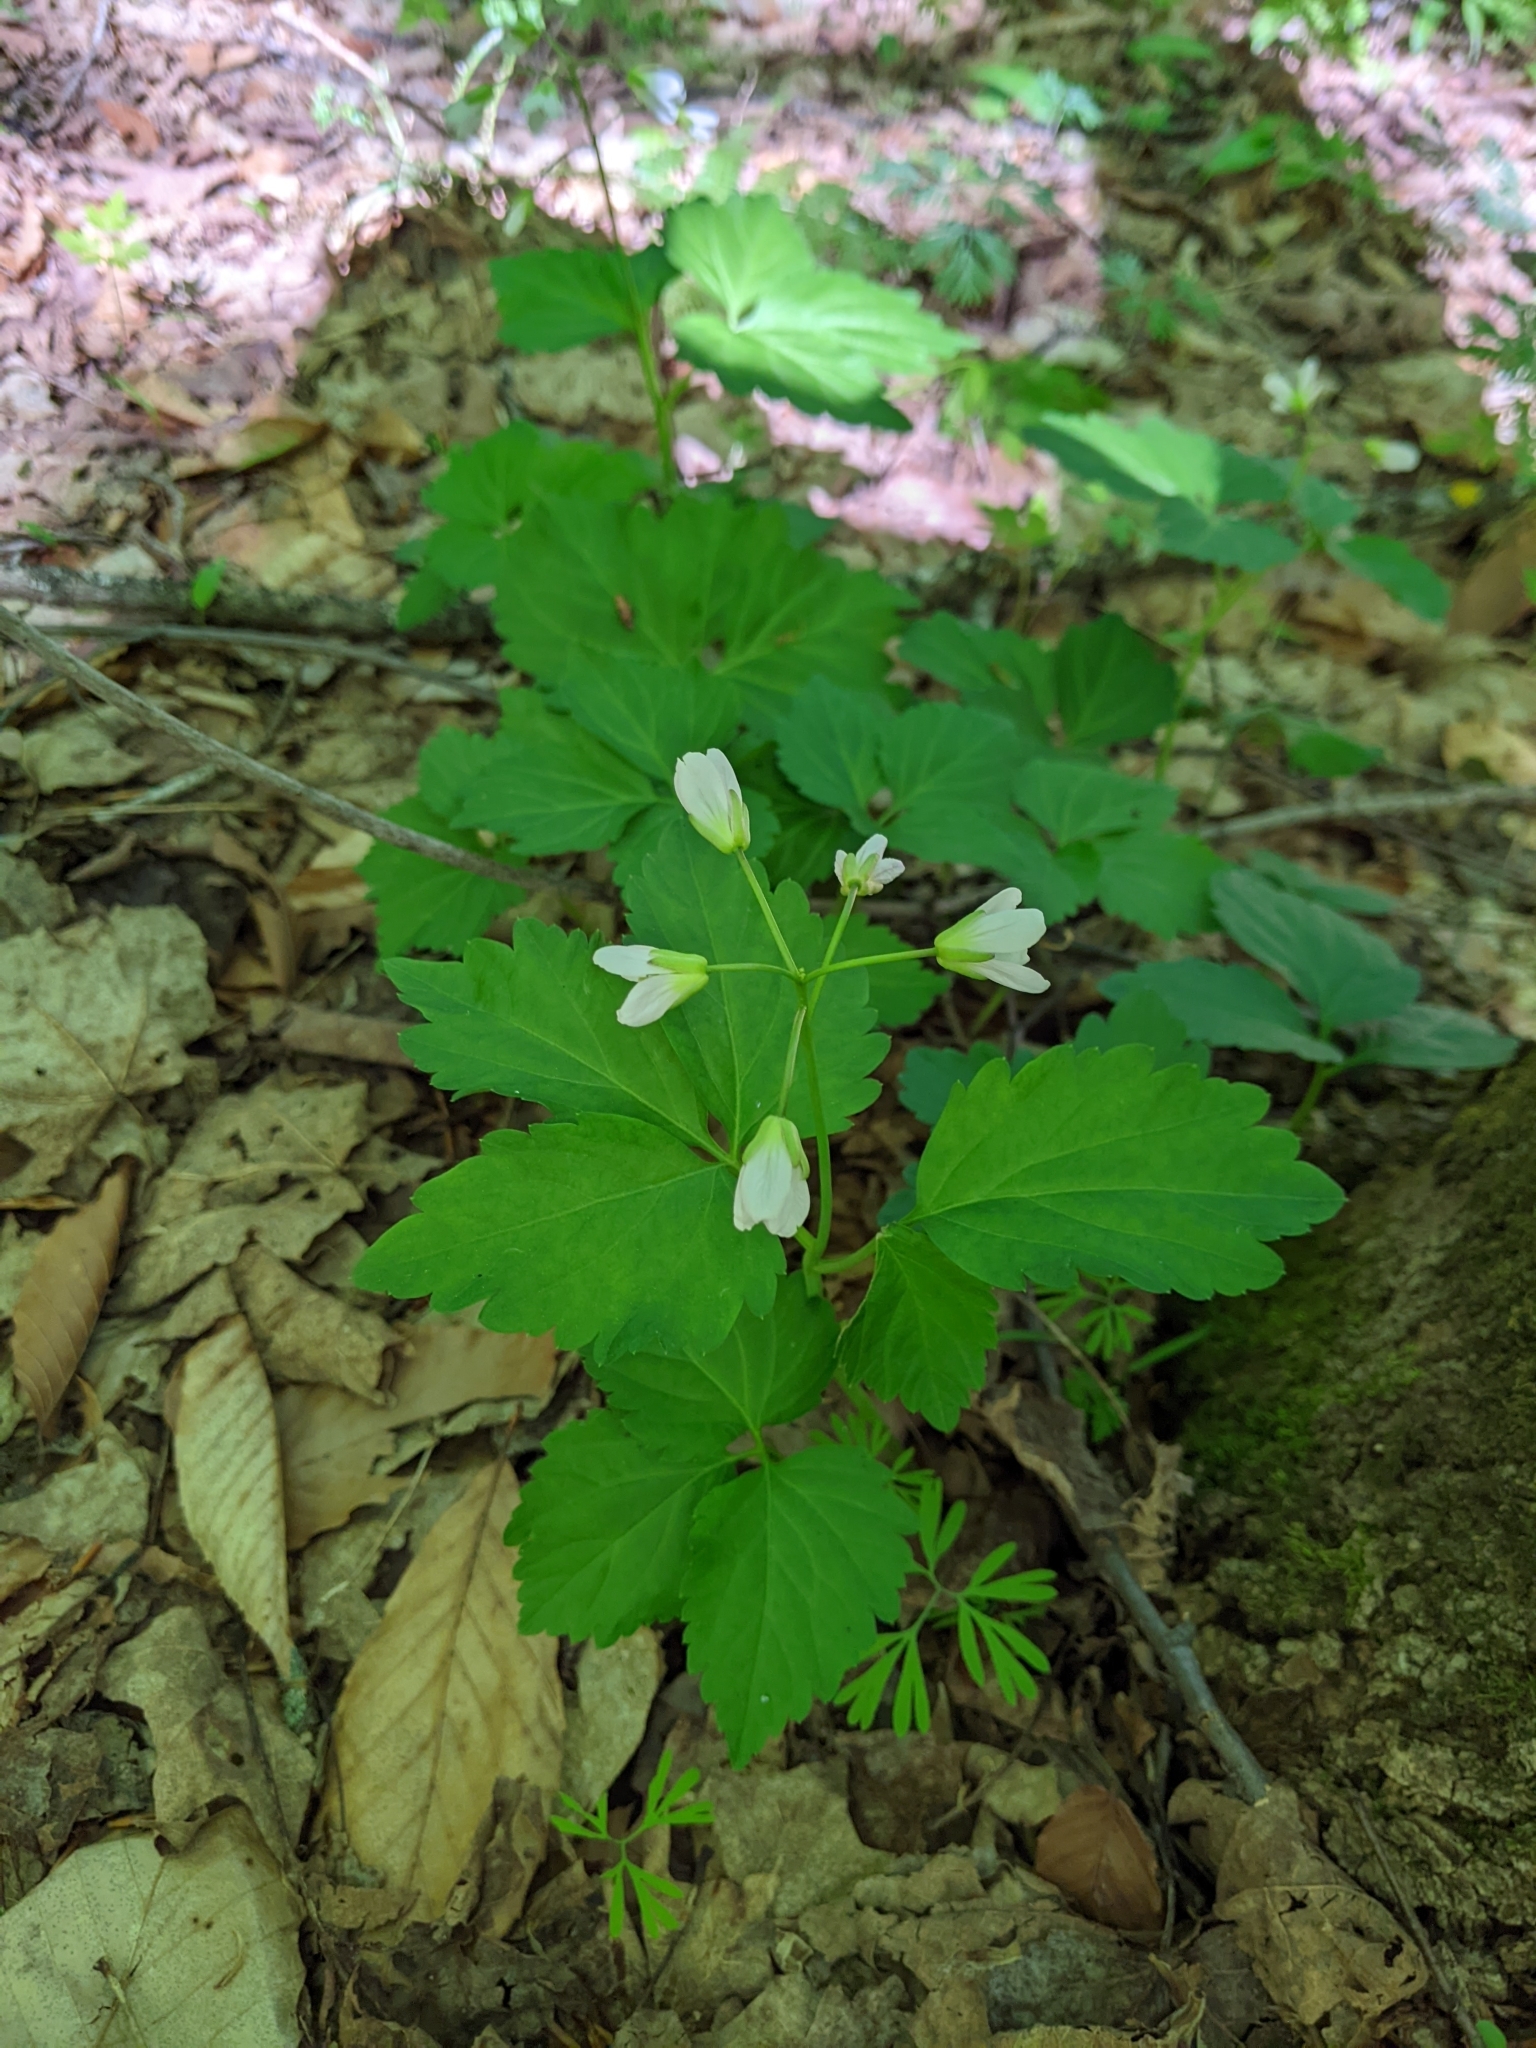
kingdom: Plantae
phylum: Tracheophyta
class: Magnoliopsida
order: Brassicales
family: Brassicaceae
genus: Cardamine
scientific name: Cardamine diphylla
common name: Broad-leaved toothwort
